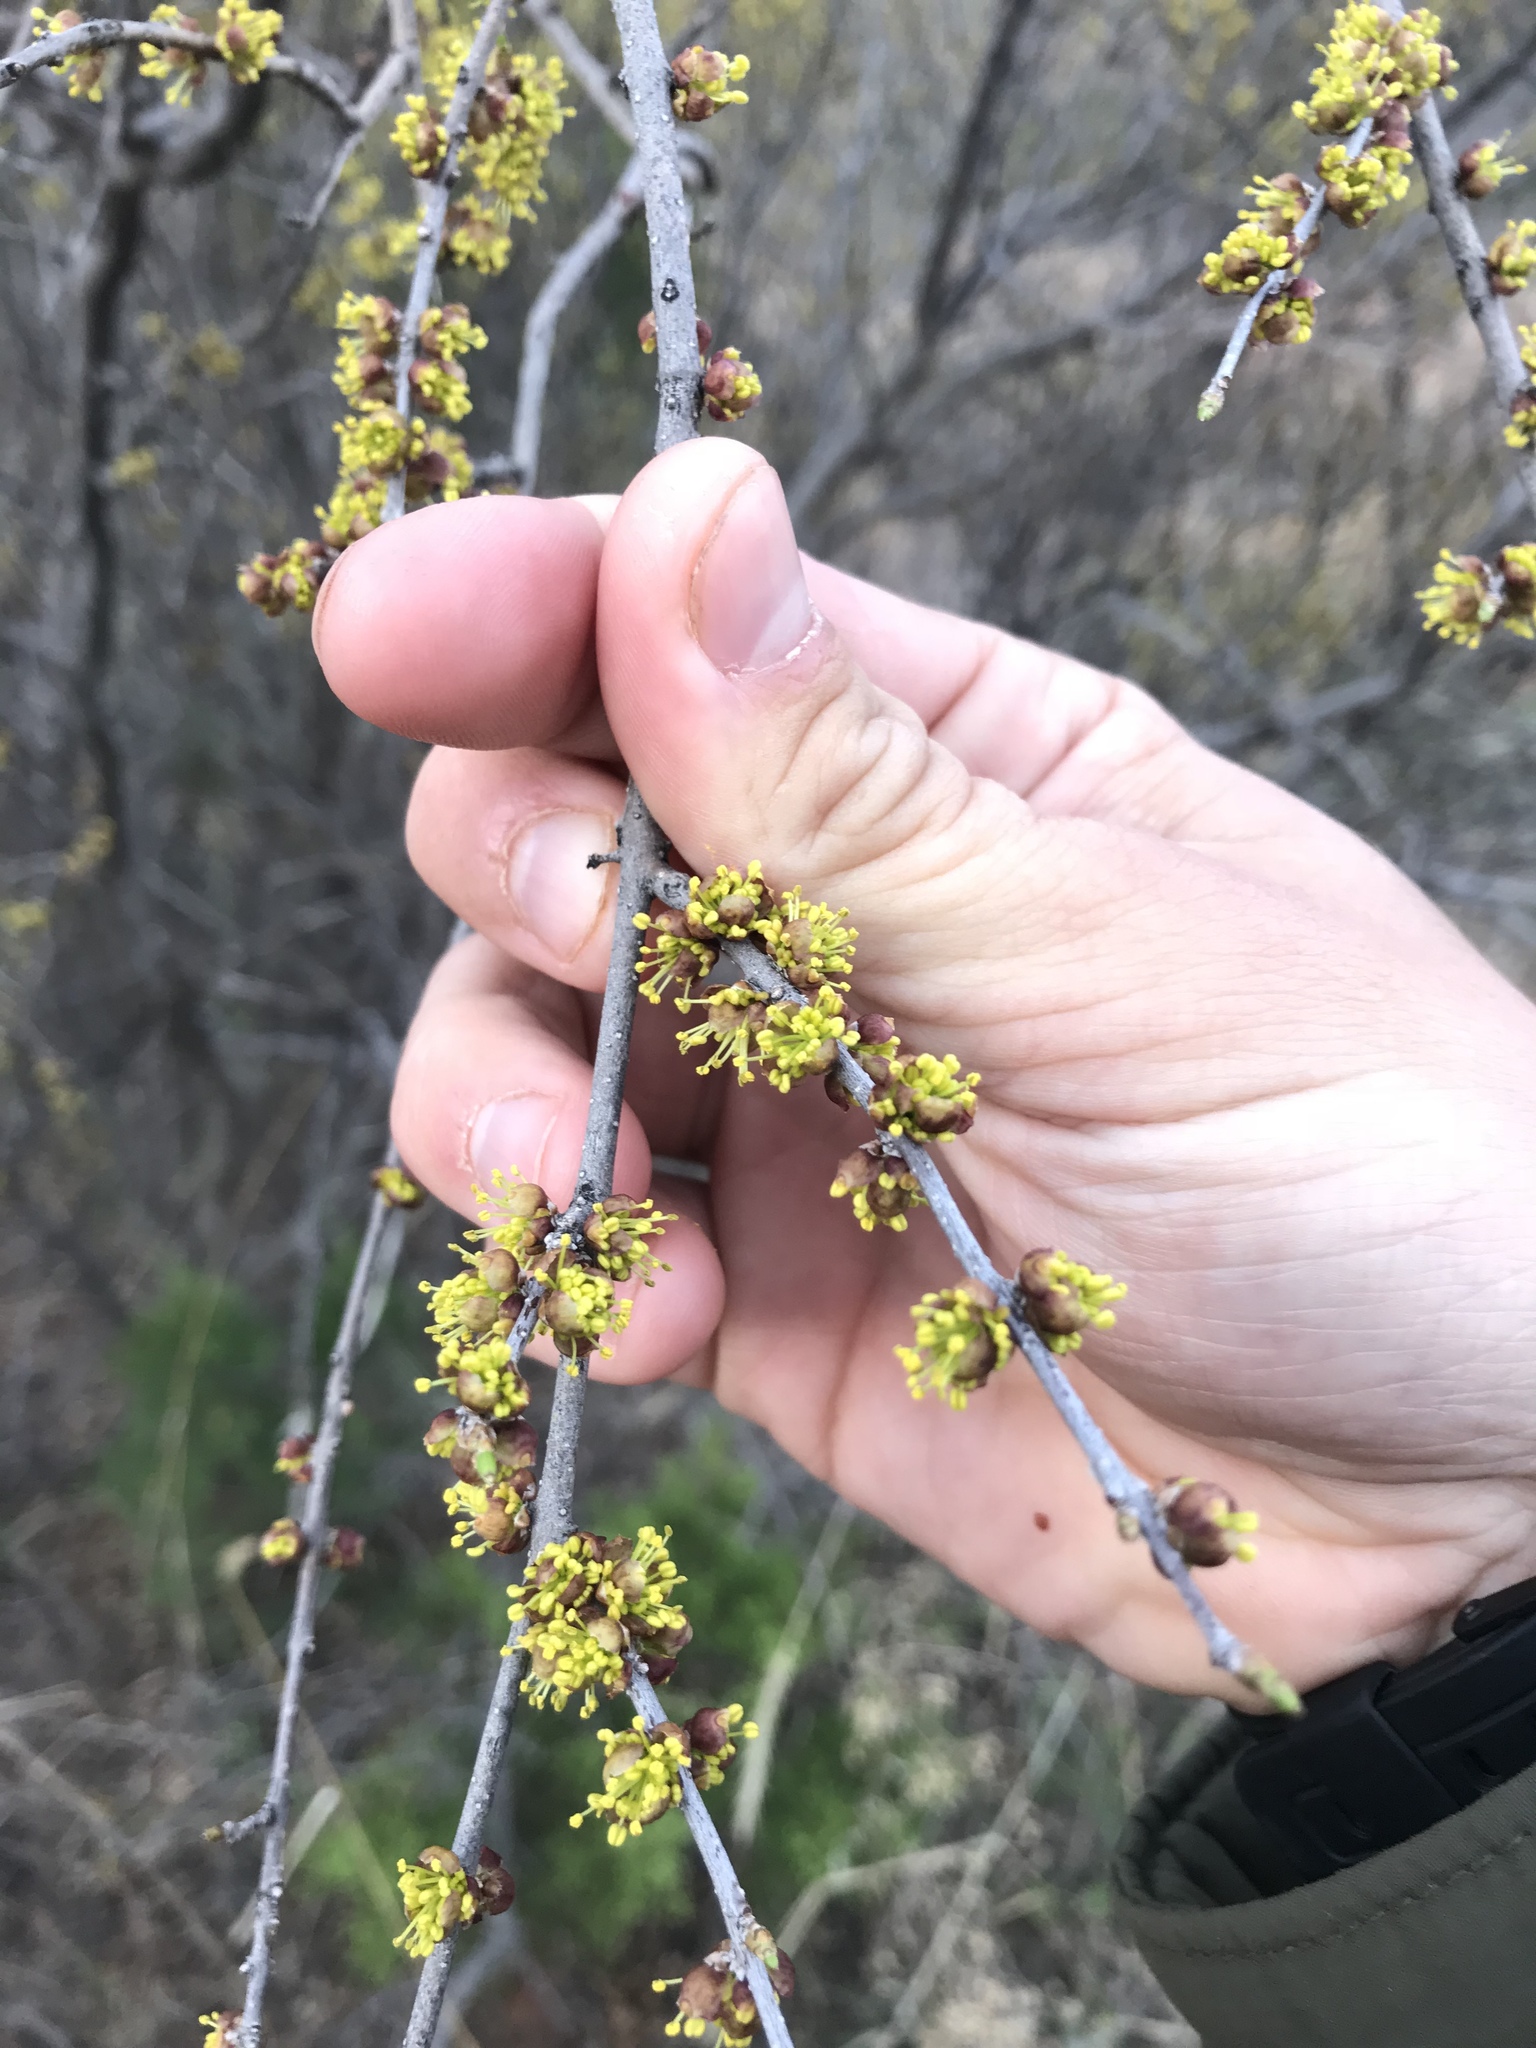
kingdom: Plantae
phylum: Tracheophyta
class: Magnoliopsida
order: Lamiales
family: Oleaceae
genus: Forestiera
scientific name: Forestiera pubescens
